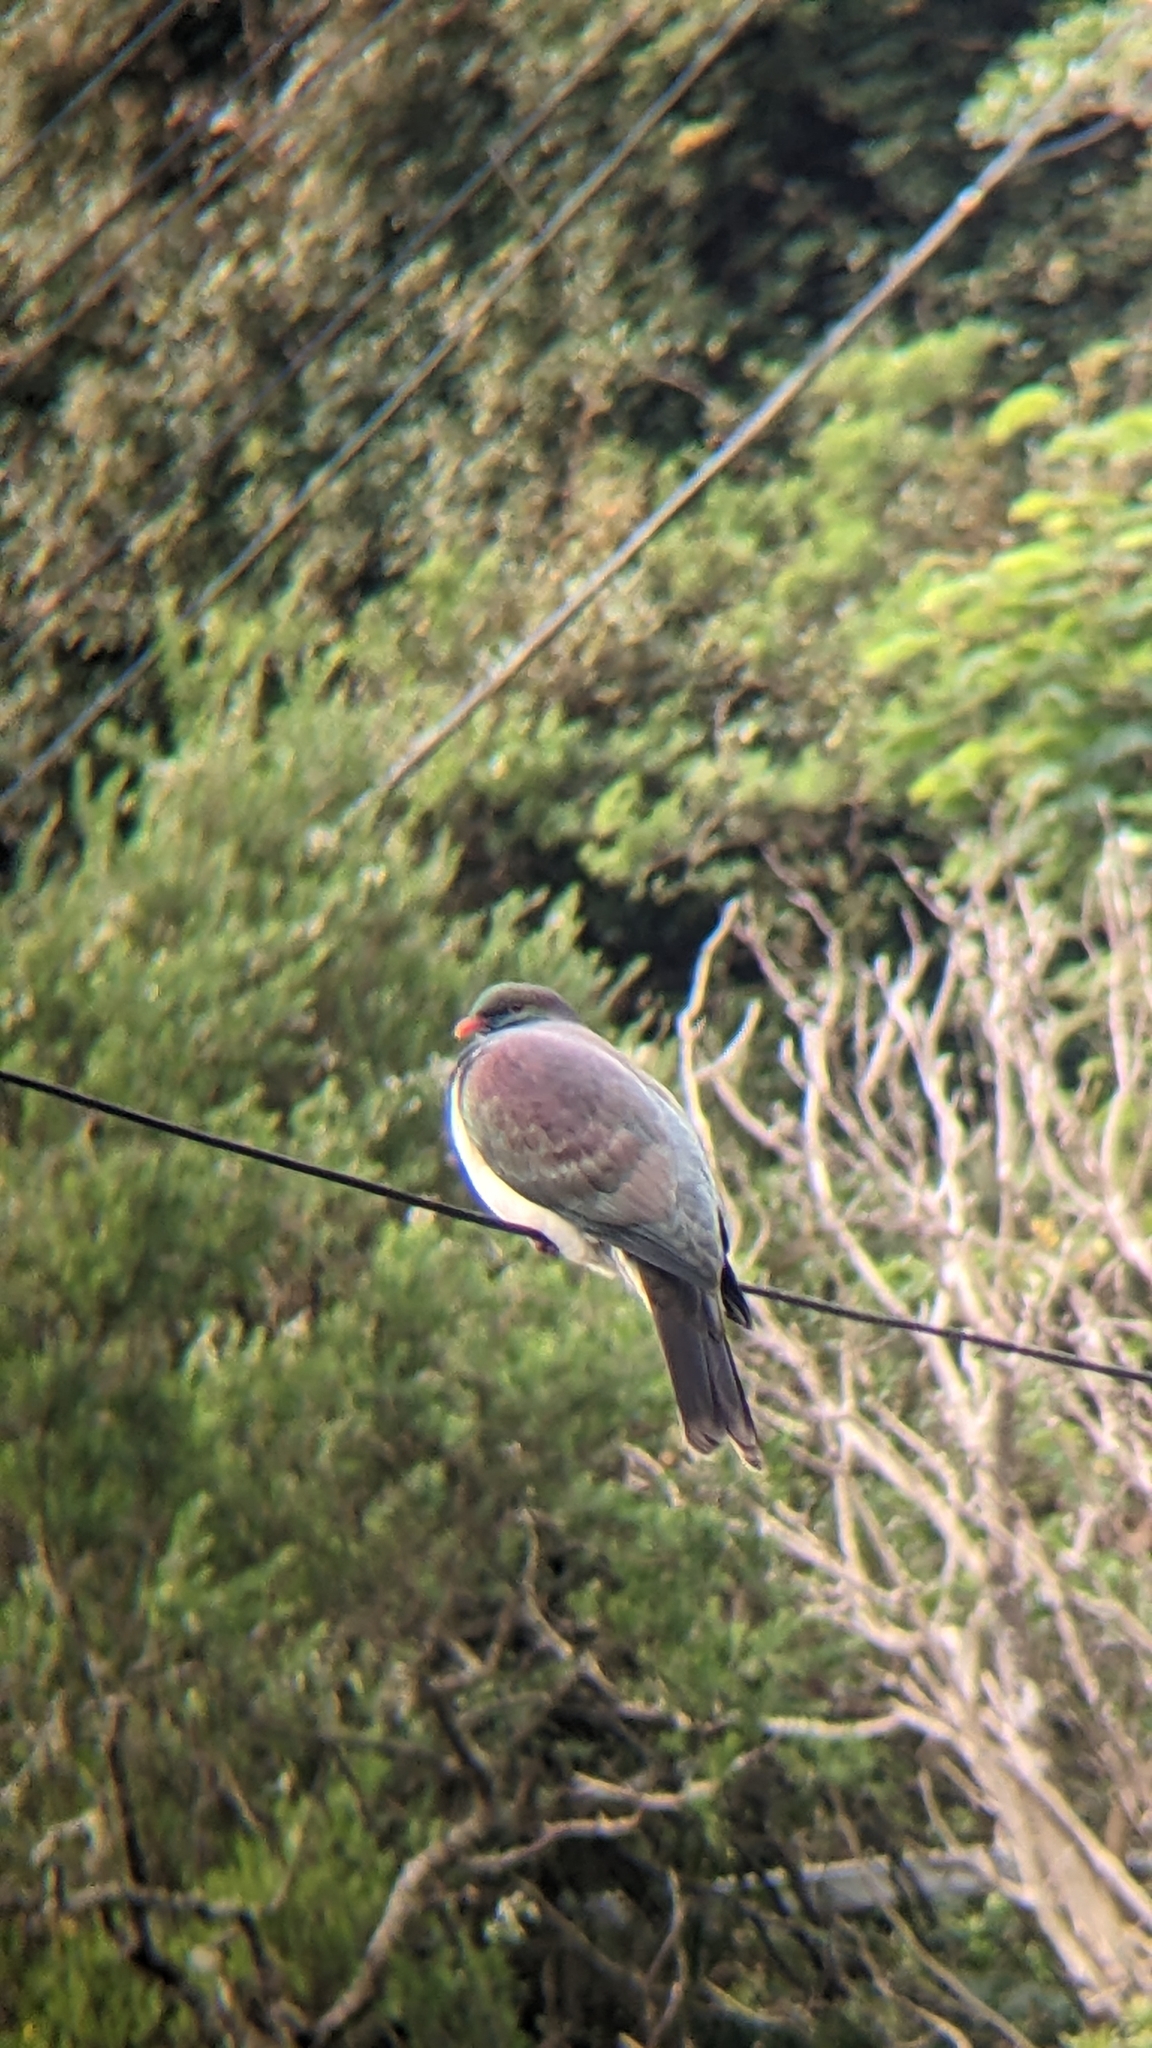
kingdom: Animalia
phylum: Chordata
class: Aves
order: Columbiformes
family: Columbidae
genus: Hemiphaga
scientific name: Hemiphaga novaeseelandiae
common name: New zealand pigeon
